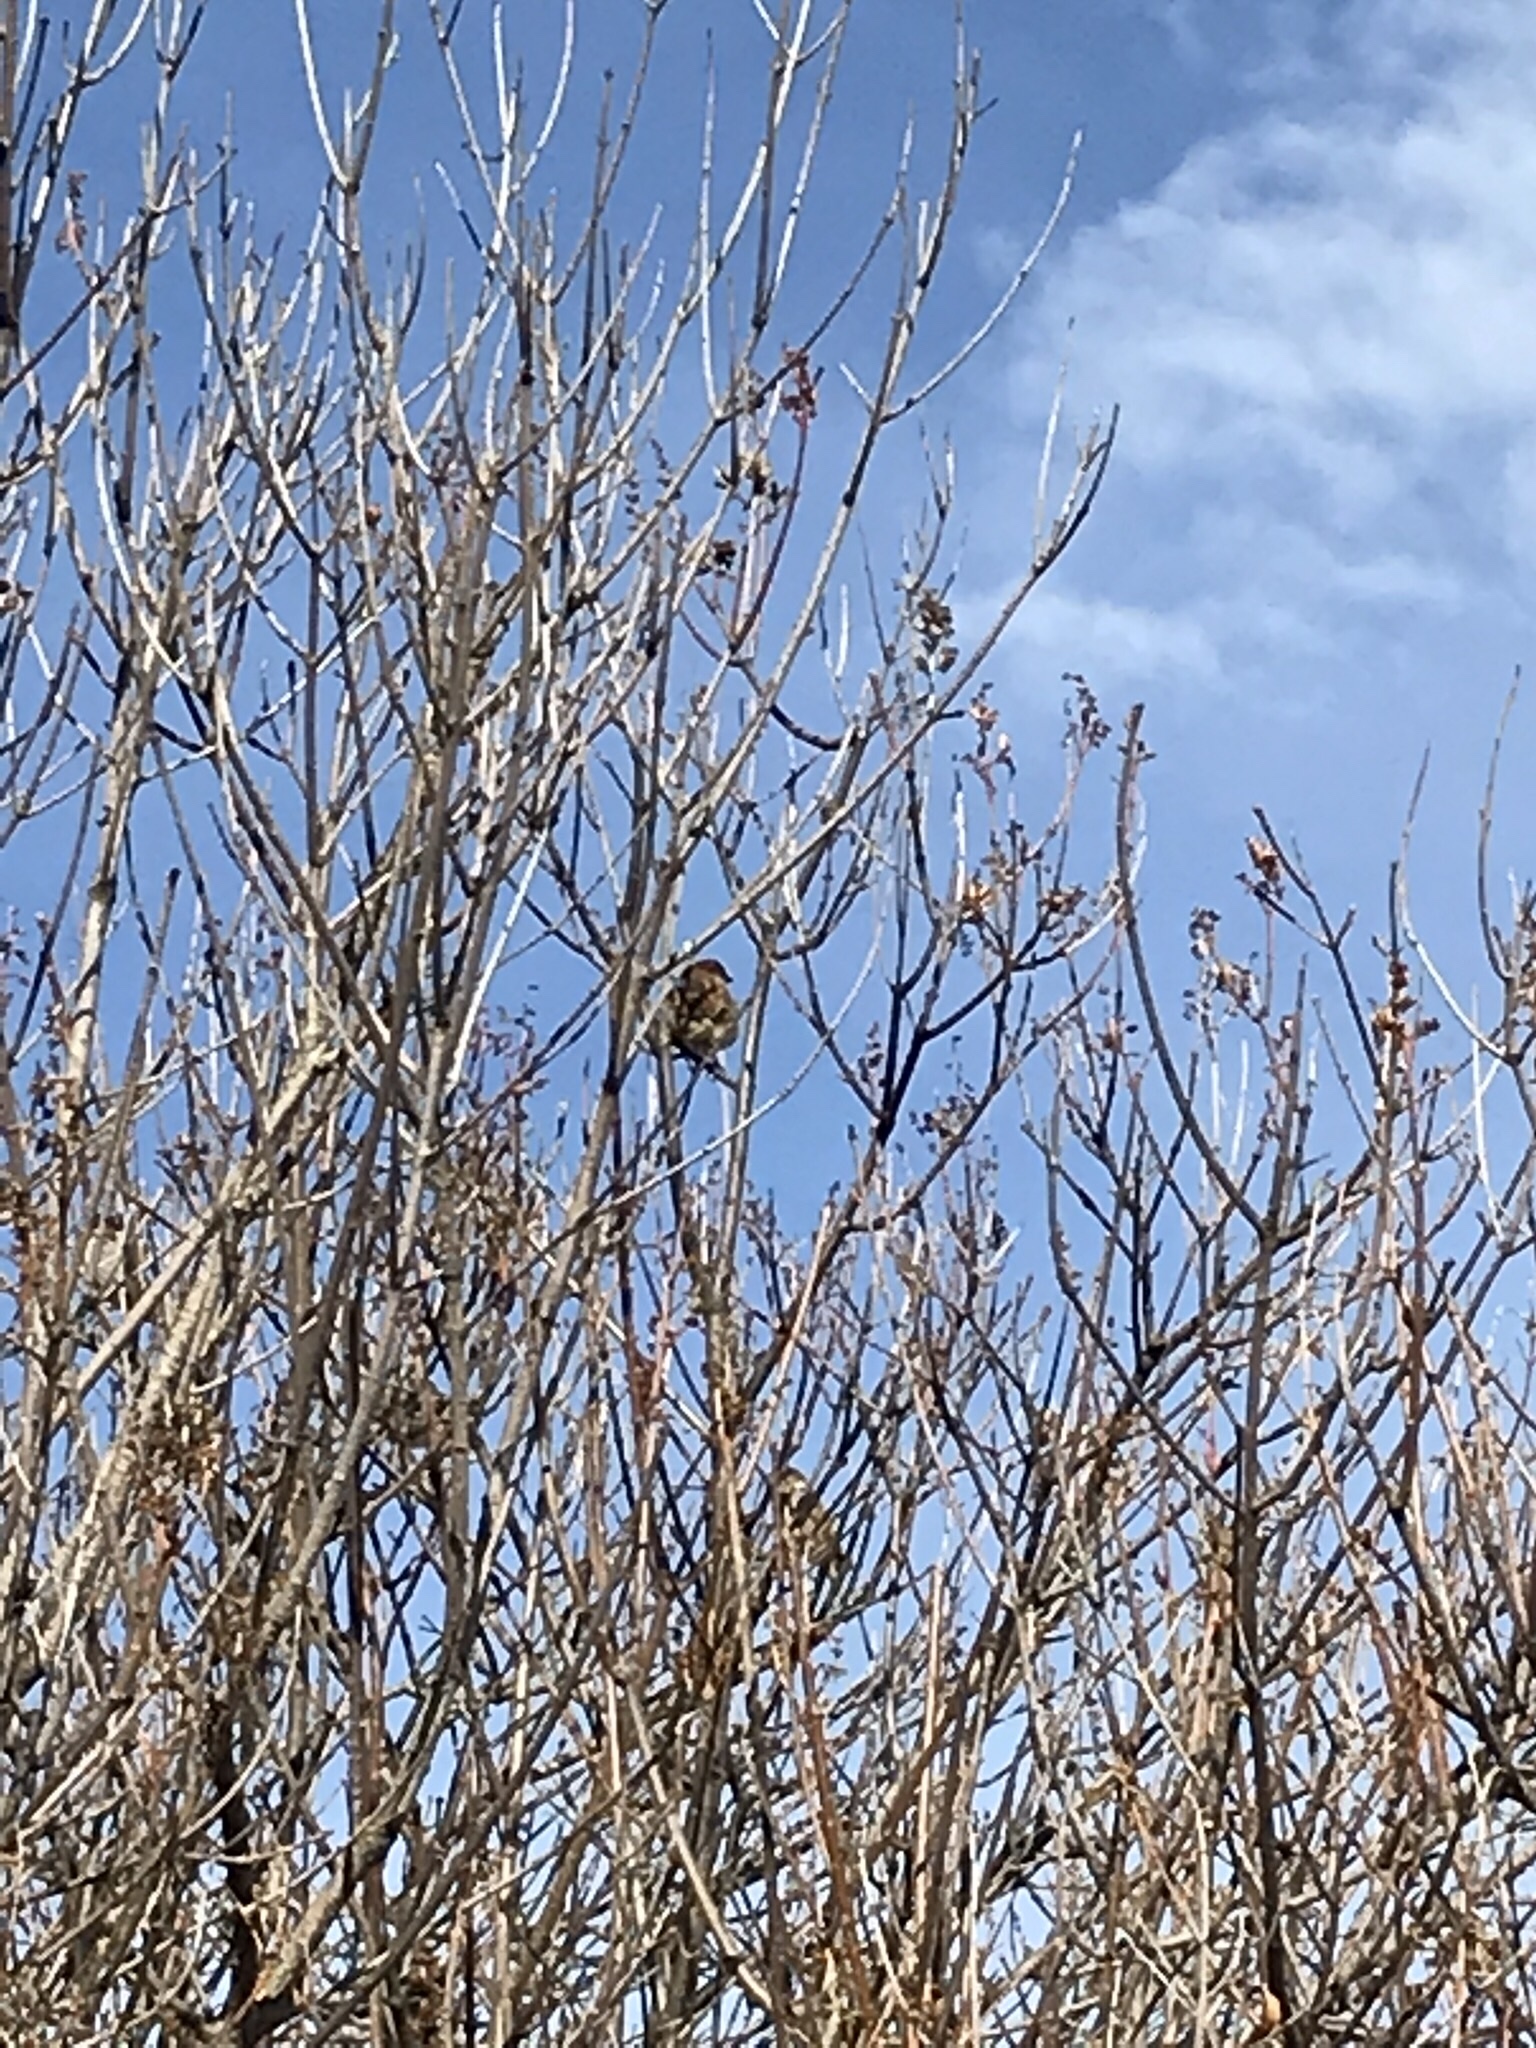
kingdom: Animalia
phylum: Chordata
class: Aves
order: Passeriformes
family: Passeridae
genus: Passer
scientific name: Passer domesticus
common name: House sparrow
